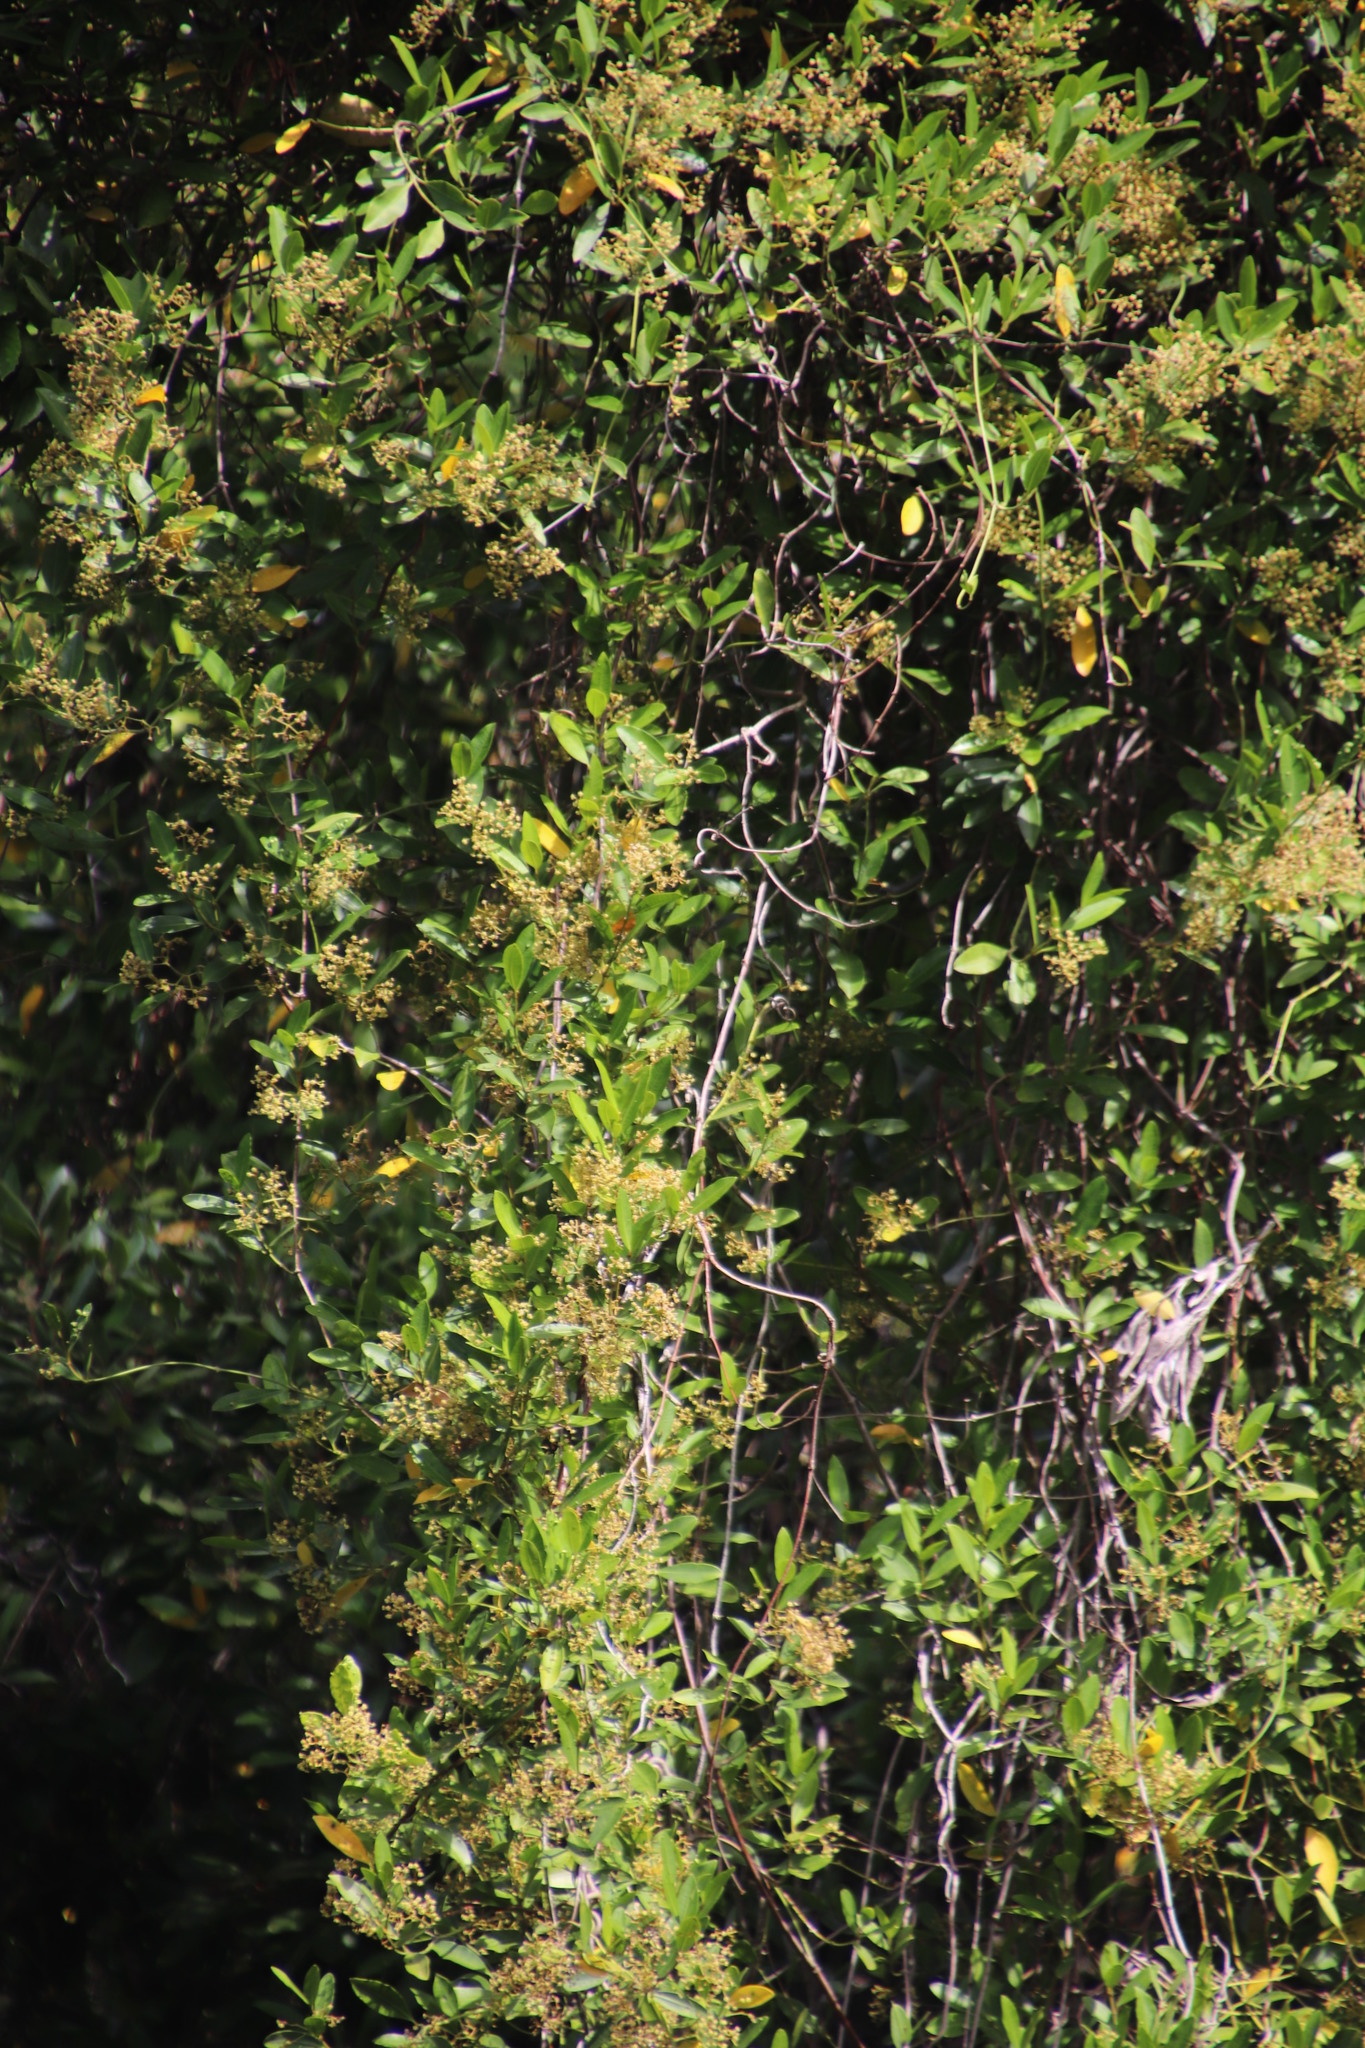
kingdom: Plantae
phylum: Tracheophyta
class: Magnoliopsida
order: Gentianales
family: Apocynaceae
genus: Secamone
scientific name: Secamone alpini
